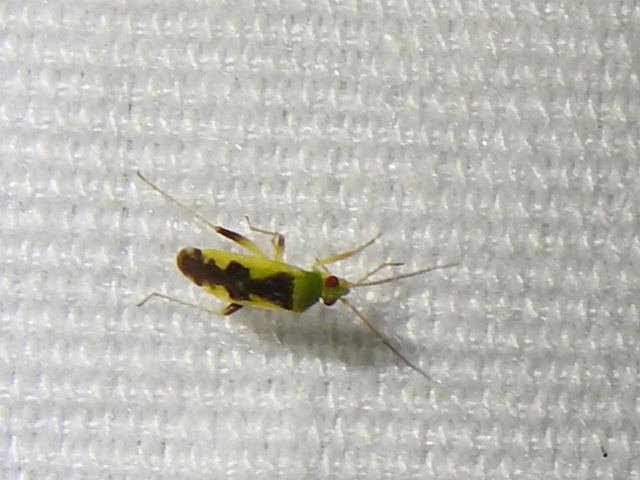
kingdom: Animalia
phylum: Arthropoda
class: Insecta
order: Hemiptera
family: Miridae
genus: Reuteroscopus
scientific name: Reuteroscopus femoralis
